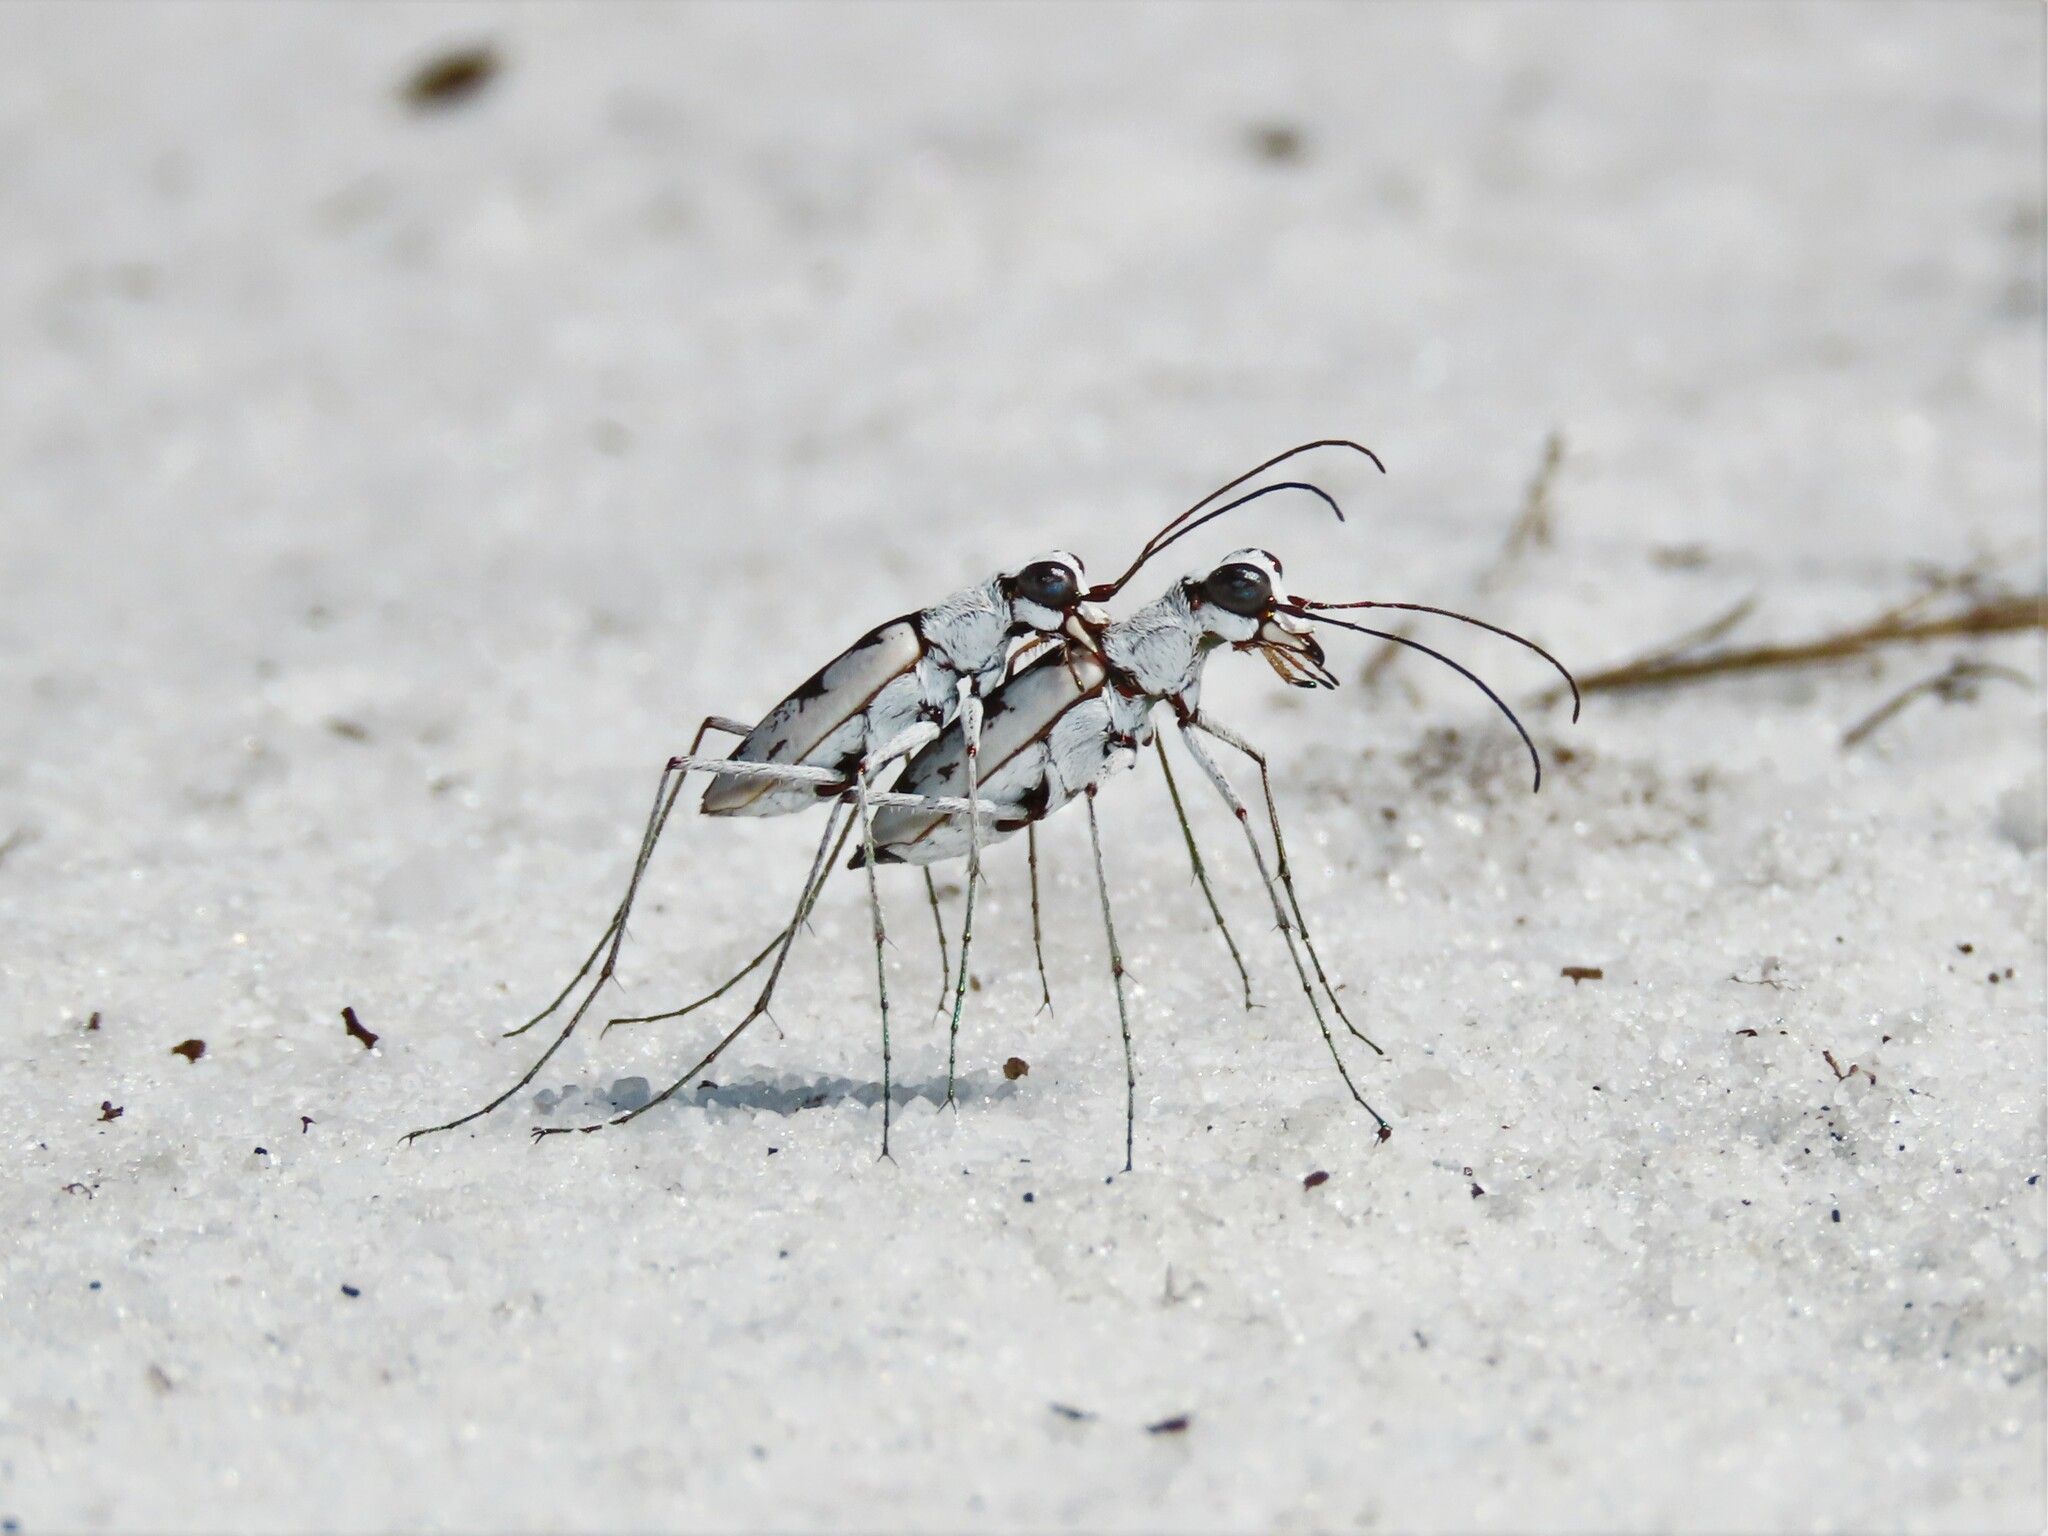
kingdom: Animalia
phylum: Arthropoda
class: Insecta
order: Coleoptera
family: Carabidae
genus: Ellipsoptera
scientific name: Ellipsoptera hirtilabris
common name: Moustached tiger beetle
